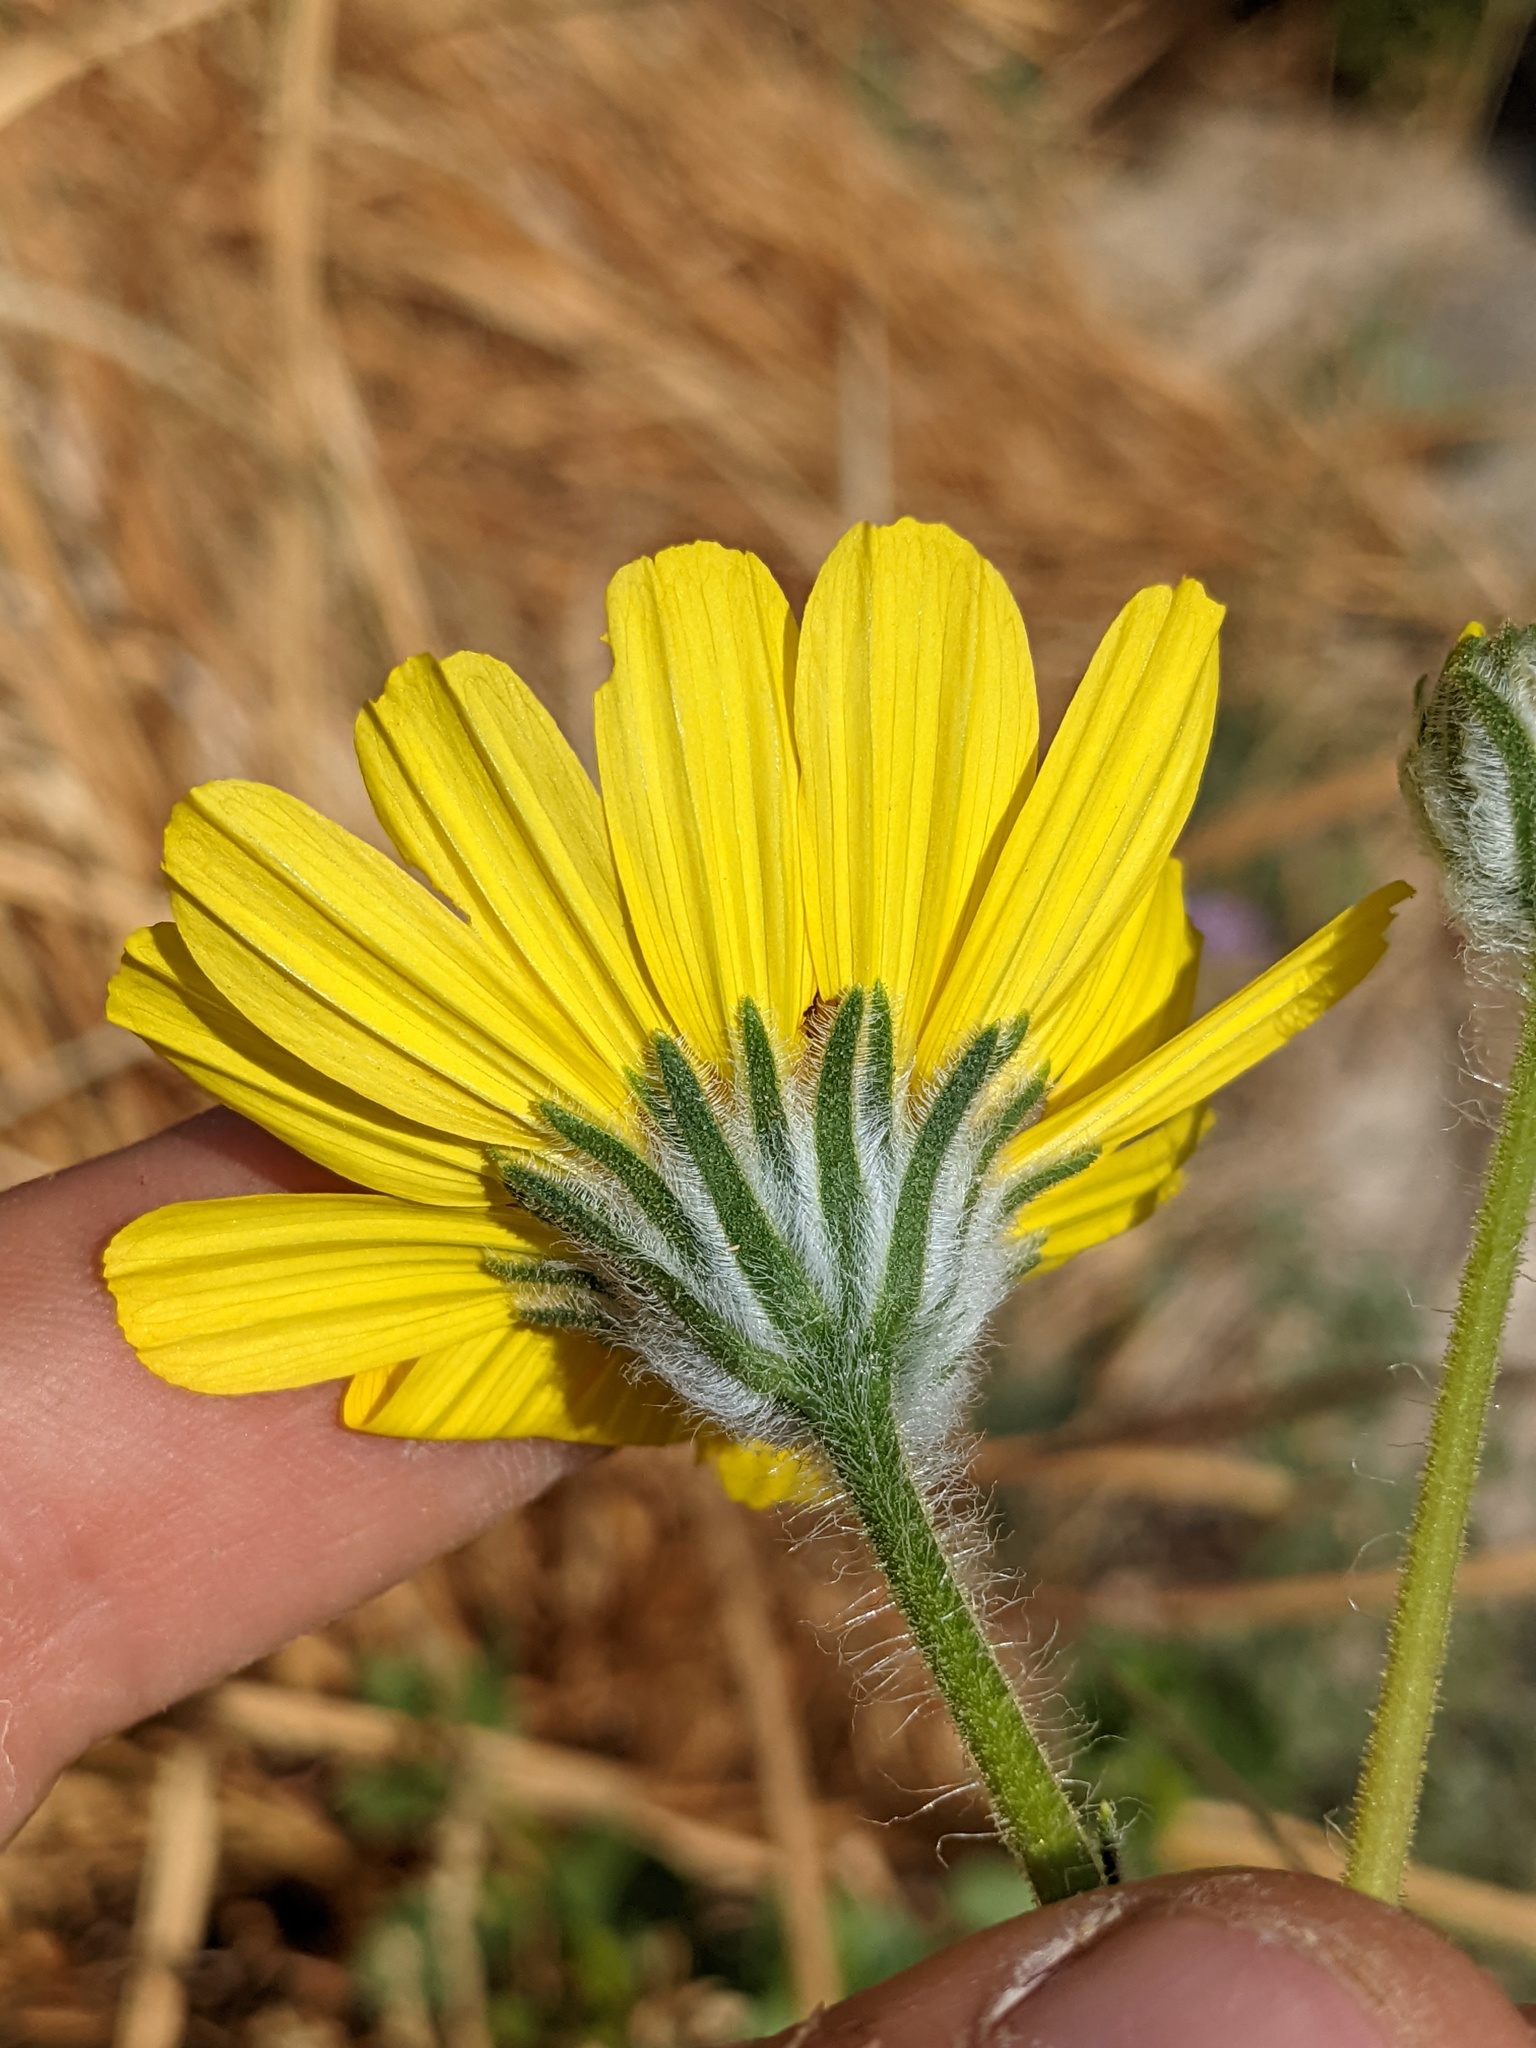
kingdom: Plantae
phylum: Tracheophyta
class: Magnoliopsida
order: Asterales
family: Asteraceae
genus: Geraea
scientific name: Geraea canescens
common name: Desert-gold
